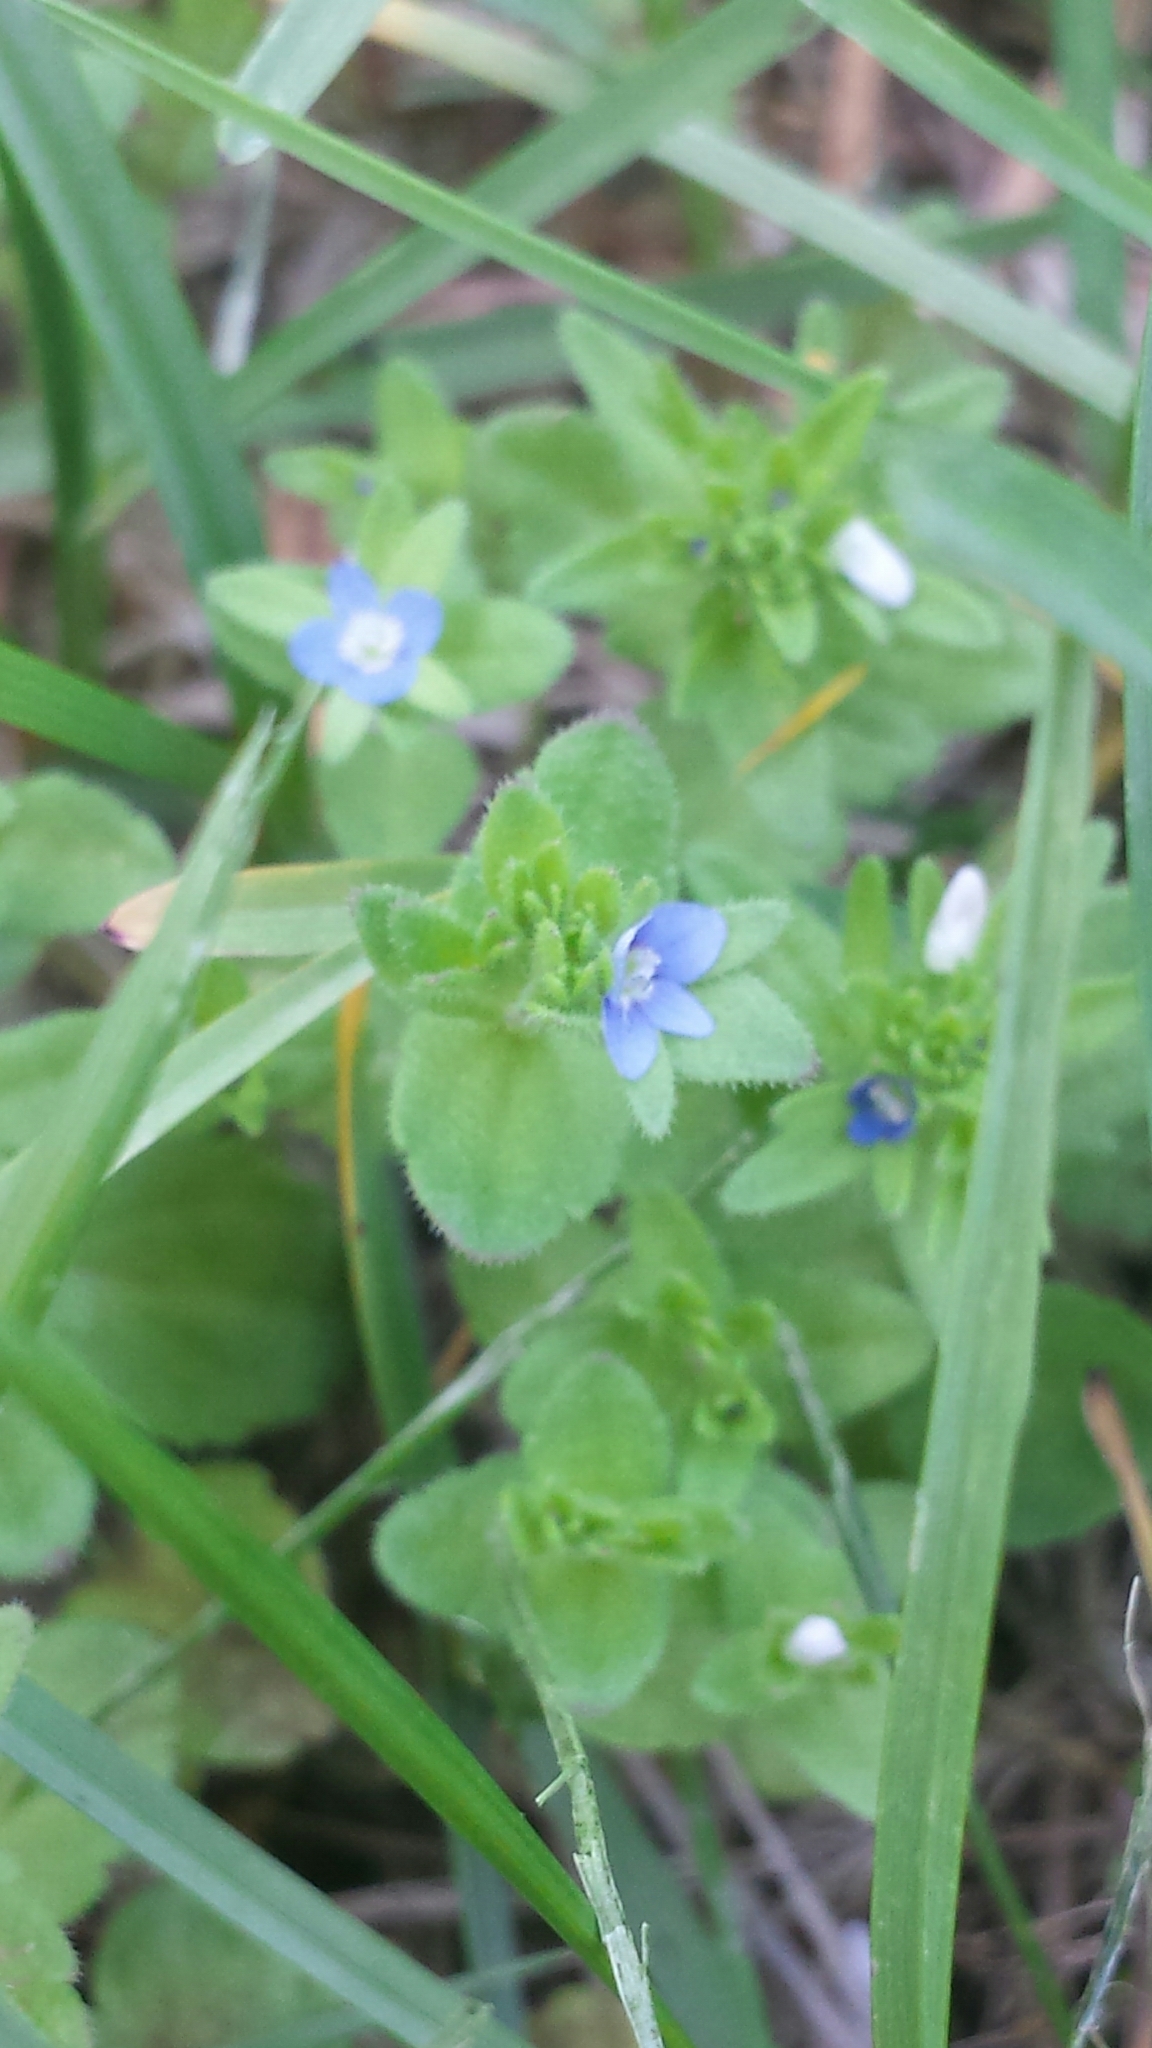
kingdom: Plantae
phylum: Tracheophyta
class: Magnoliopsida
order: Lamiales
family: Plantaginaceae
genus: Veronica
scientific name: Veronica arvensis
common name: Corn speedwell
